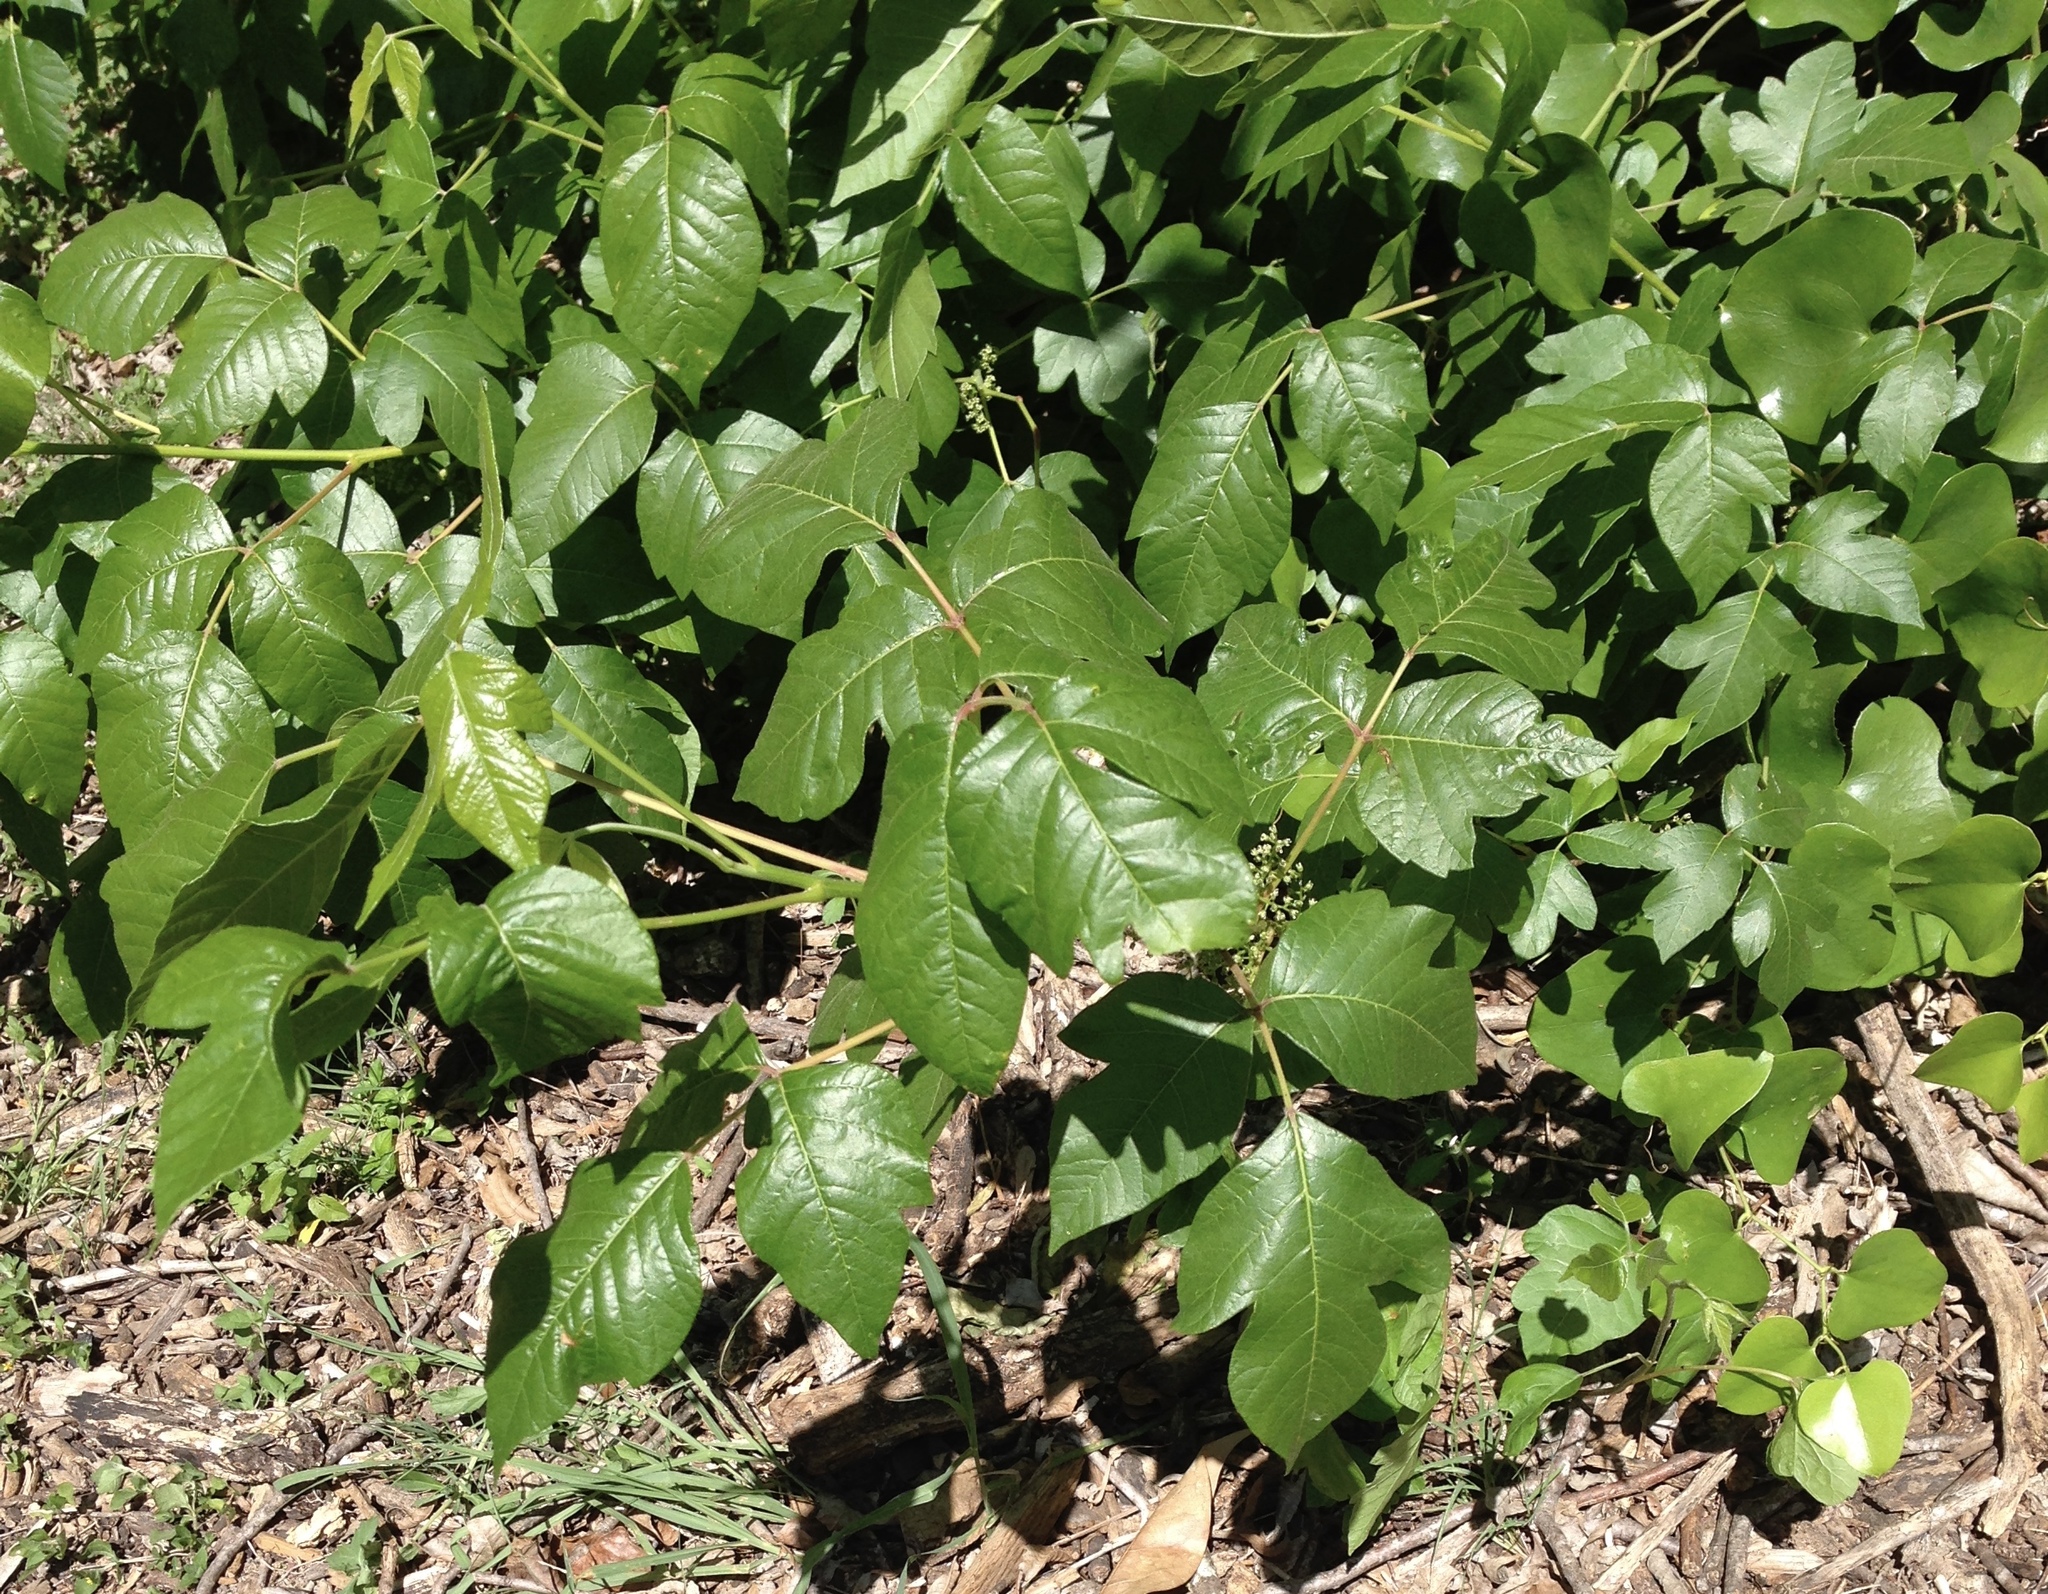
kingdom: Plantae
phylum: Tracheophyta
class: Magnoliopsida
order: Sapindales
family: Anacardiaceae
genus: Toxicodendron
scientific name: Toxicodendron radicans
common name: Poison ivy
